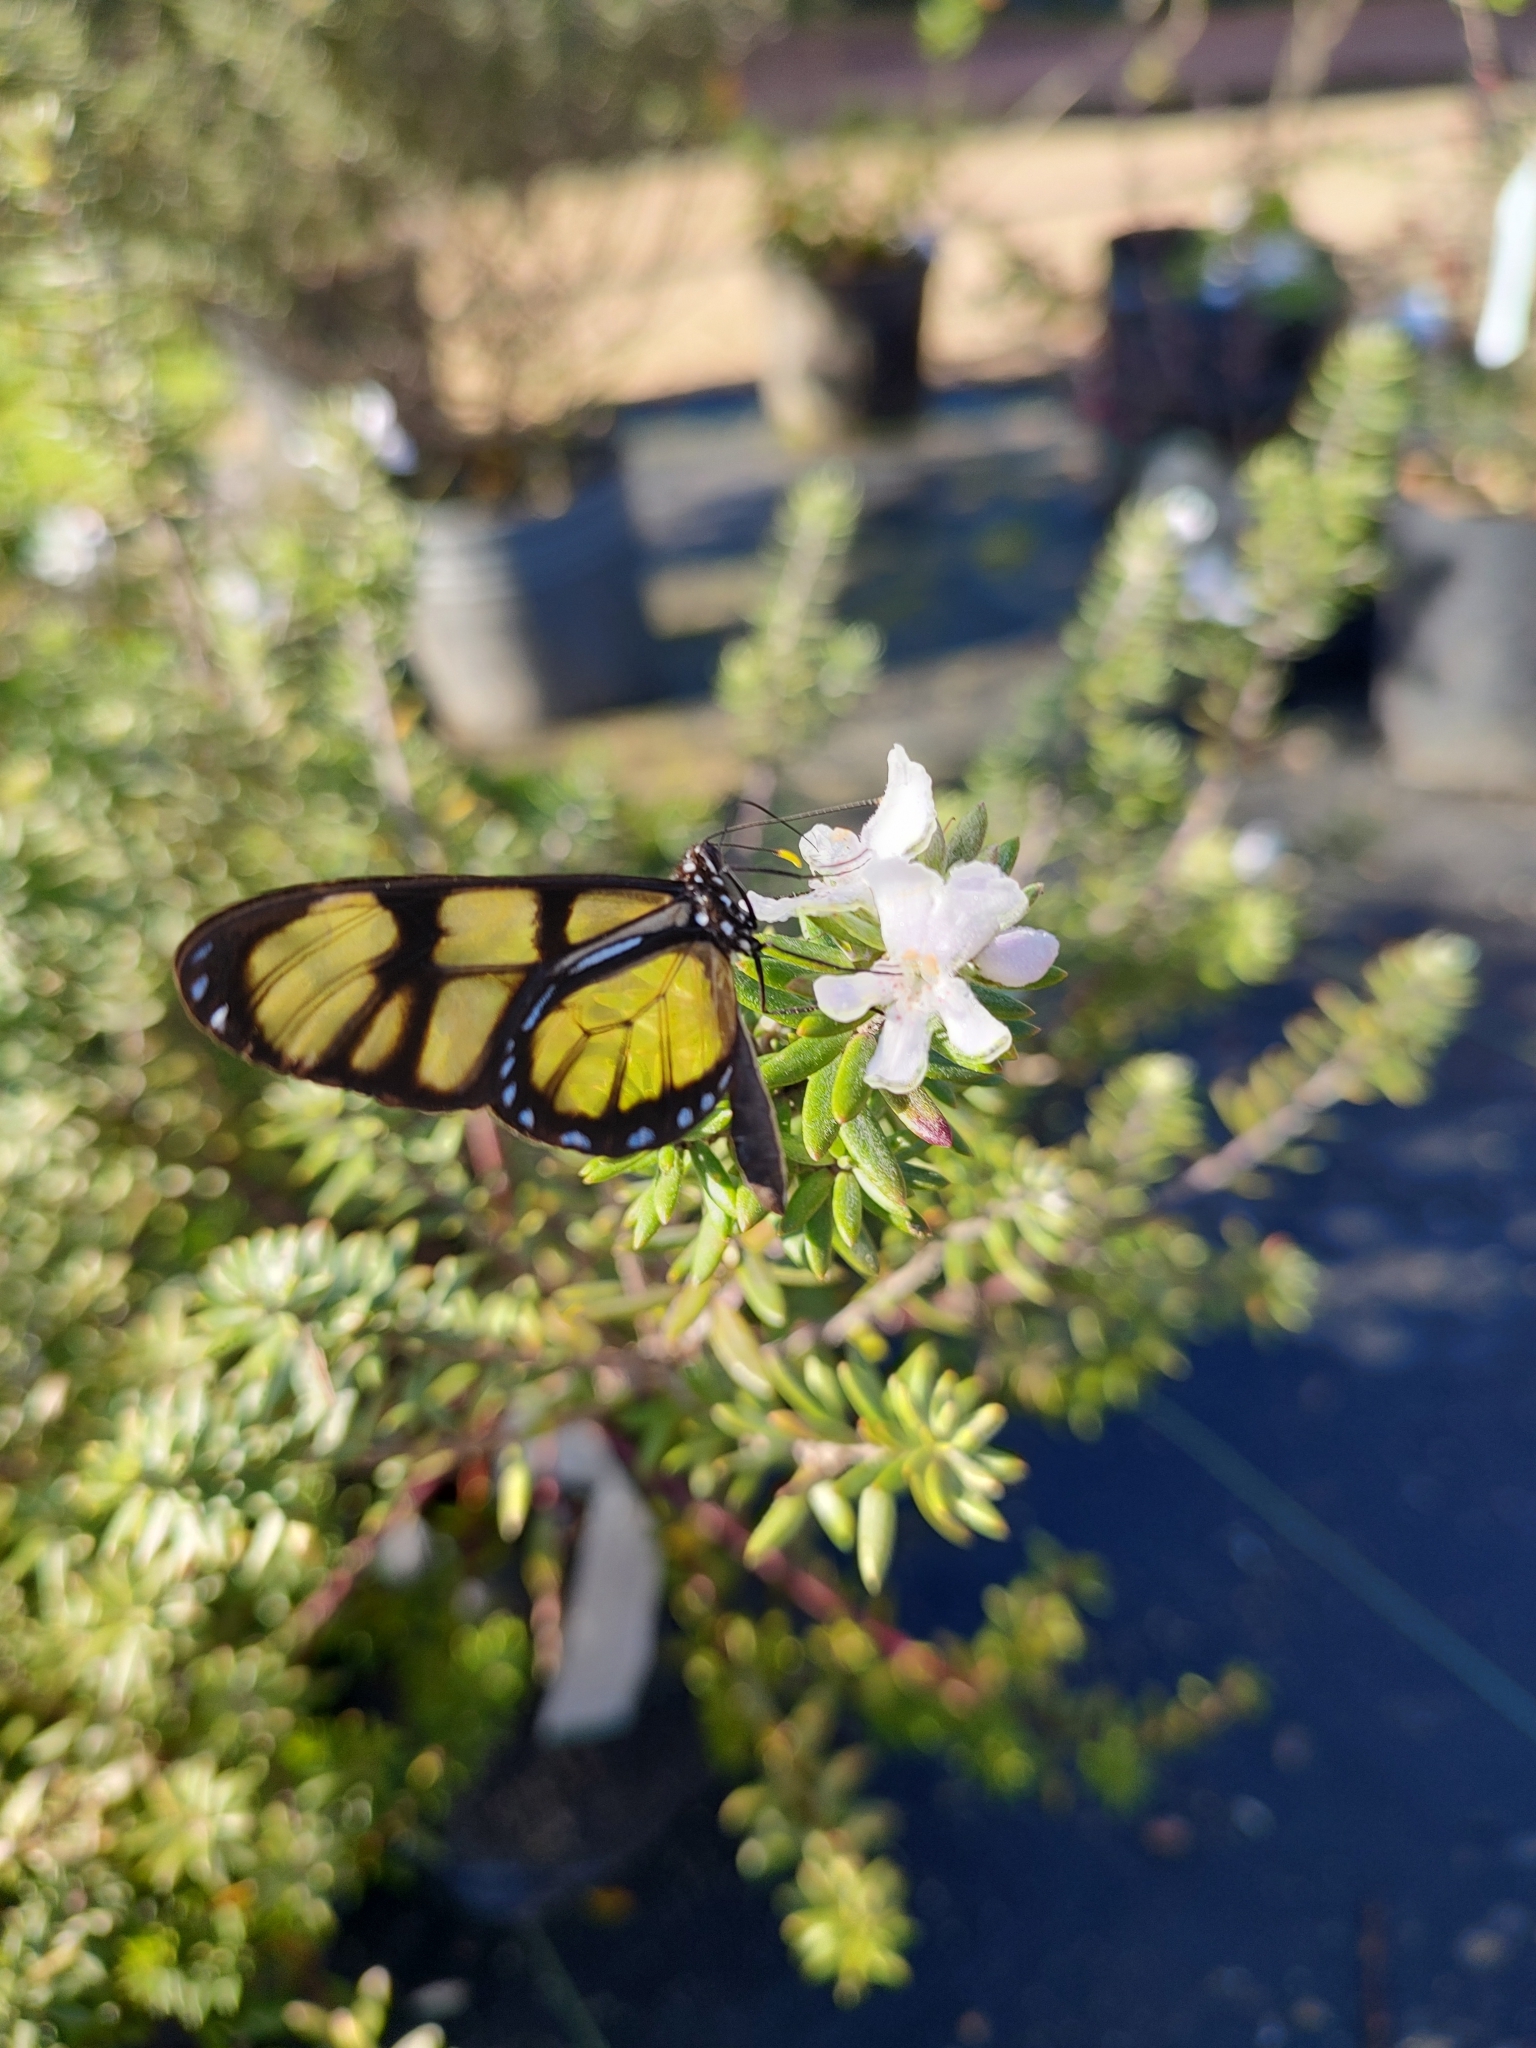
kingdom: Animalia
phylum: Arthropoda
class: Insecta
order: Lepidoptera
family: Nymphalidae
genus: Dircenna
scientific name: Dircenna dero
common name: Dero clearwing
